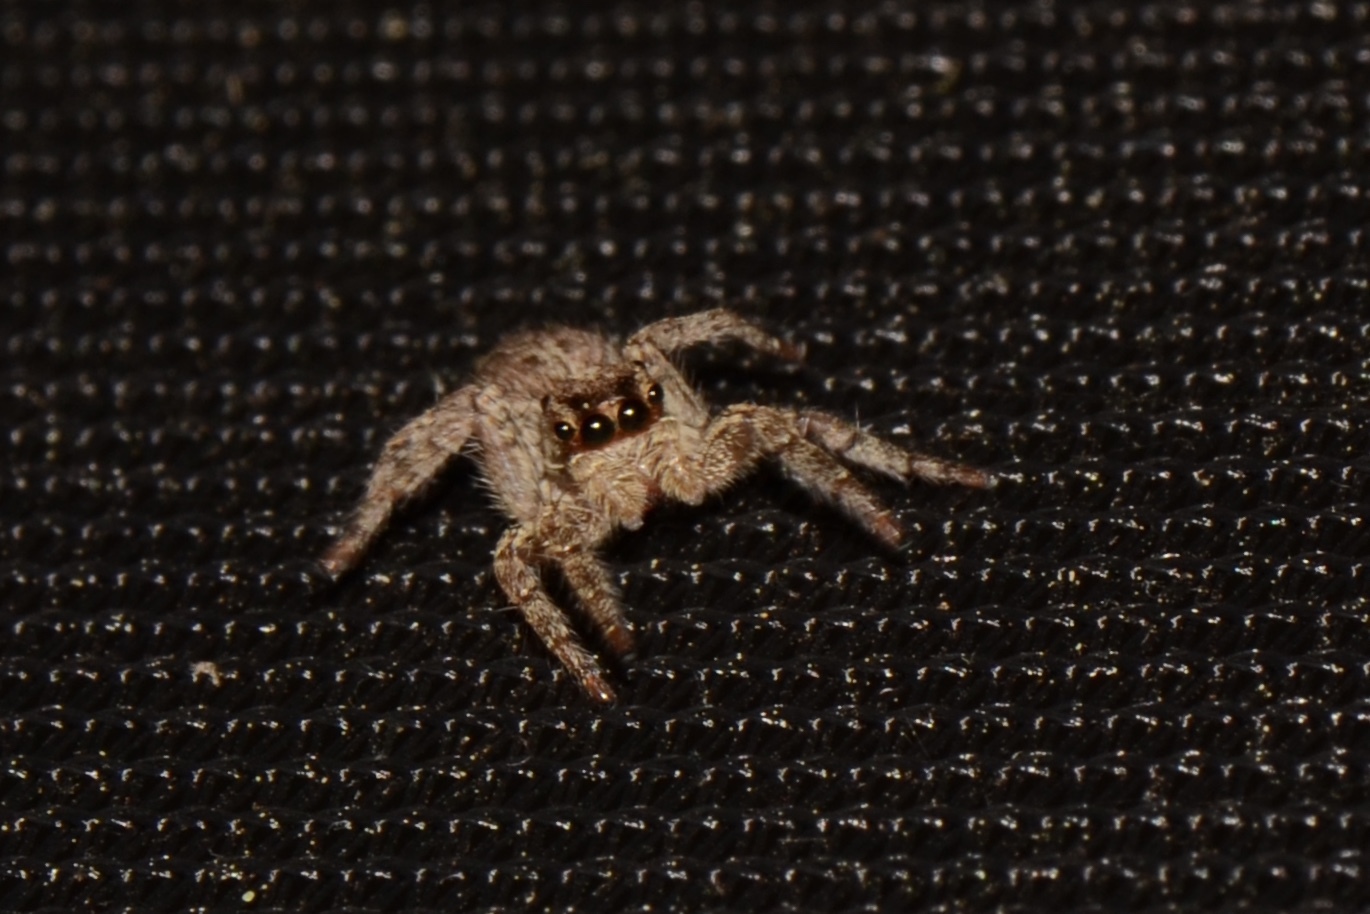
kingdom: Animalia
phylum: Arthropoda
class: Arachnida
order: Araneae
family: Salticidae
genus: Plexippus
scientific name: Plexippus paykulli
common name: Pantropical jumper
